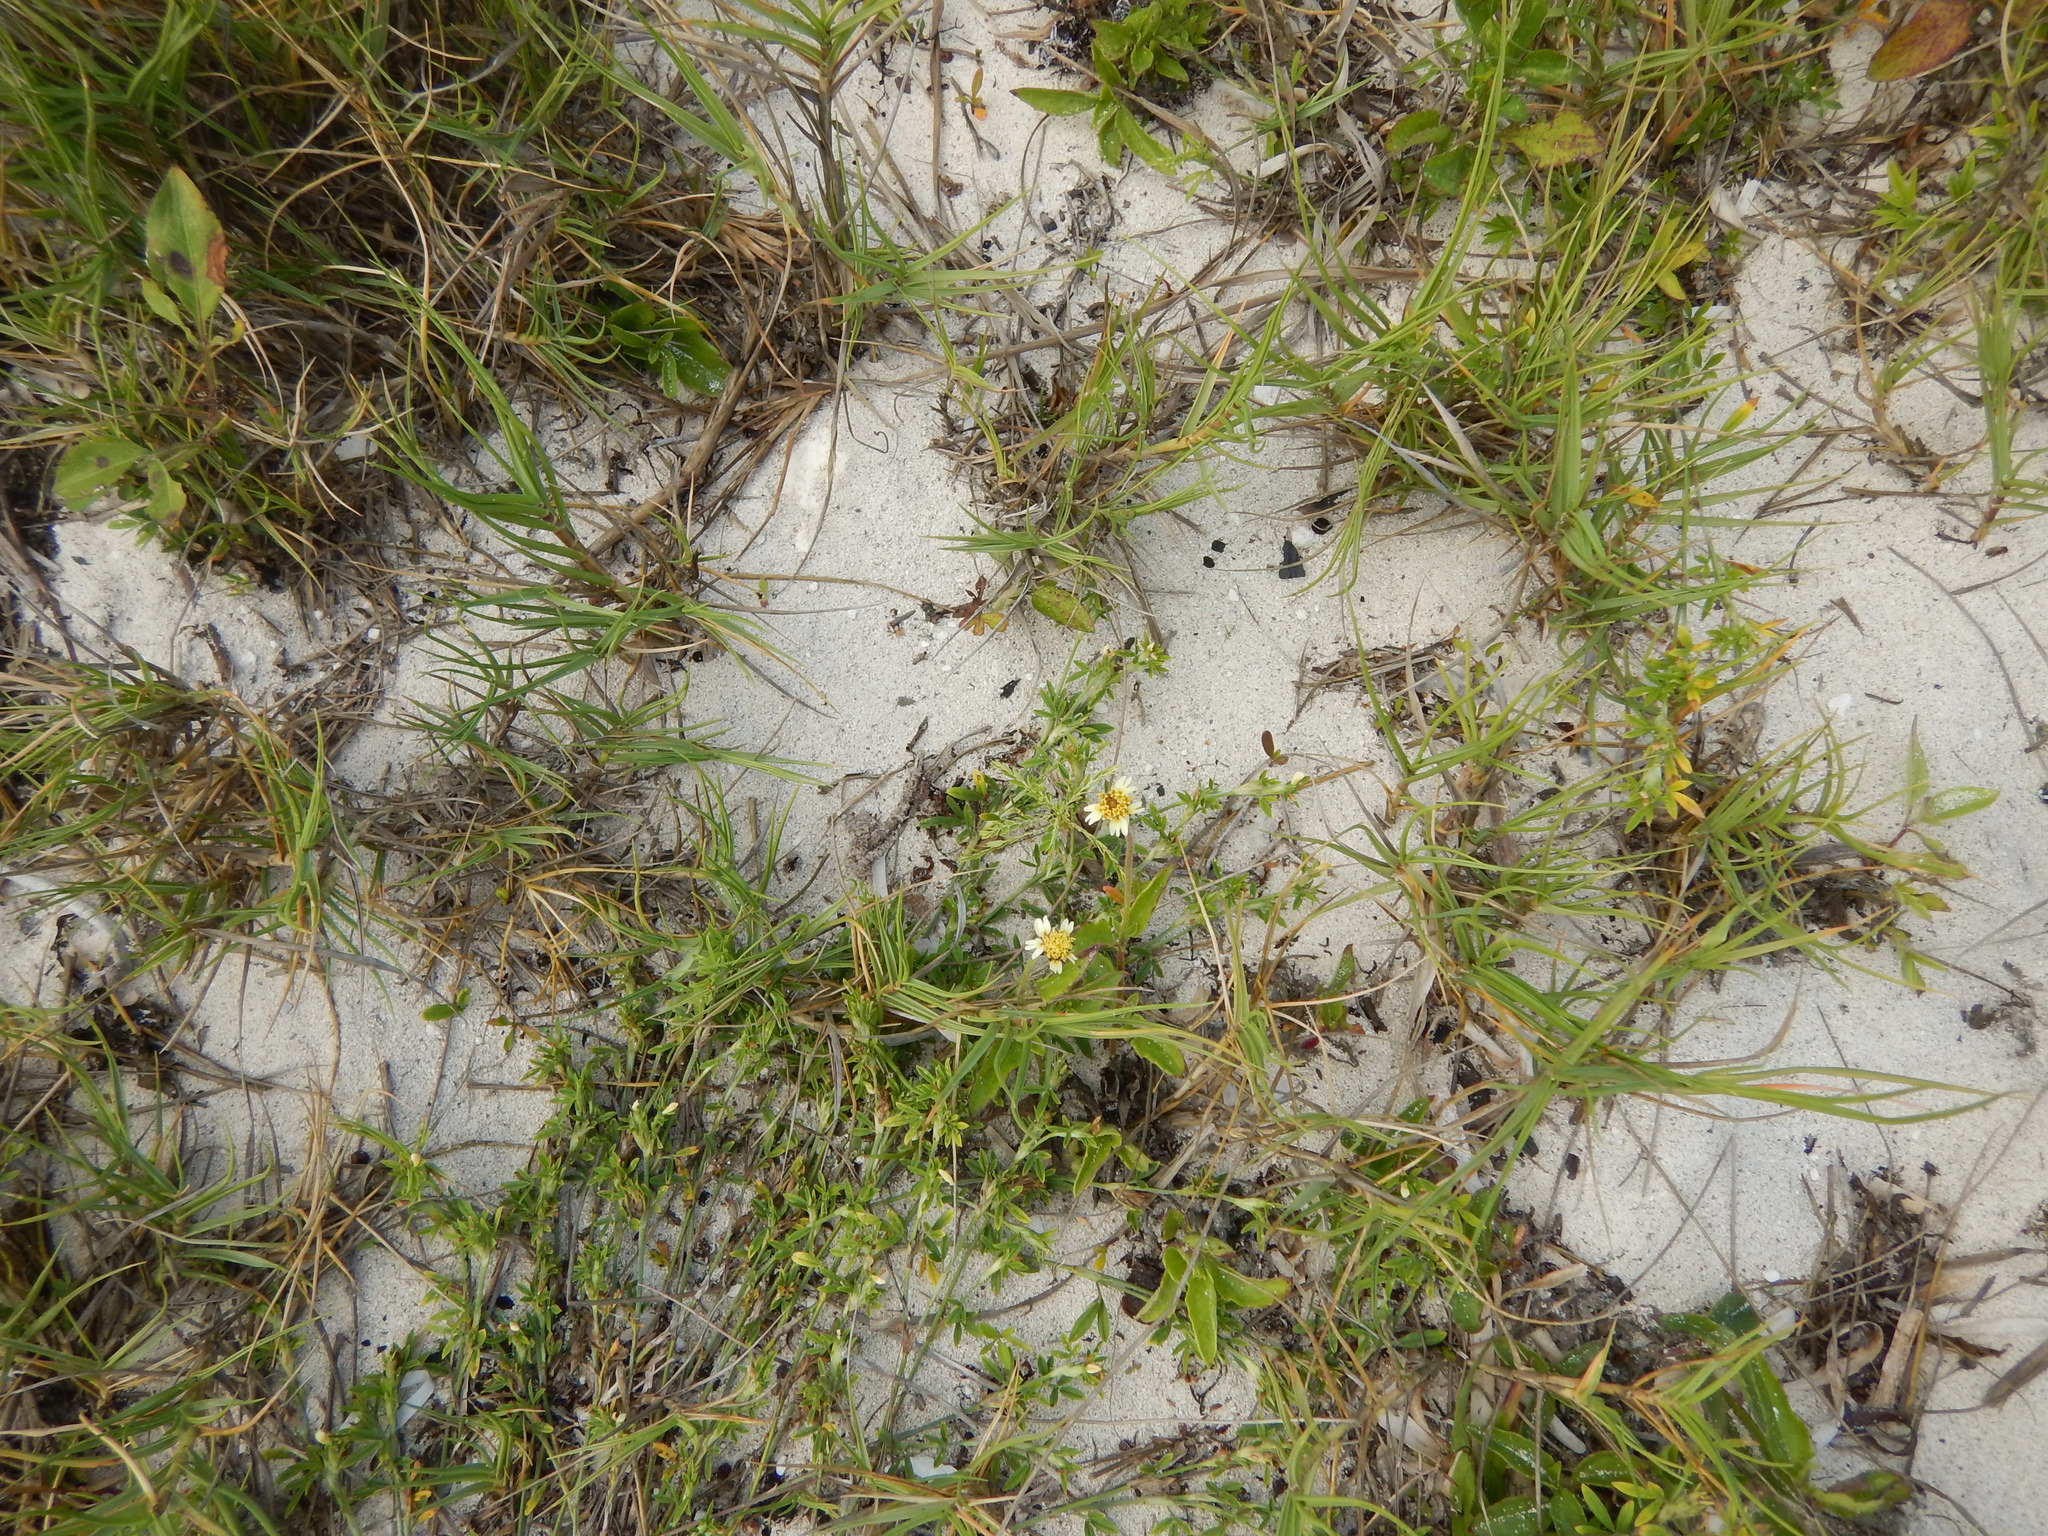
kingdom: Plantae
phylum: Tracheophyta
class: Magnoliopsida
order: Asterales
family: Asteraceae
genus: Tridax
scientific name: Tridax procumbens
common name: Coatbuttons
